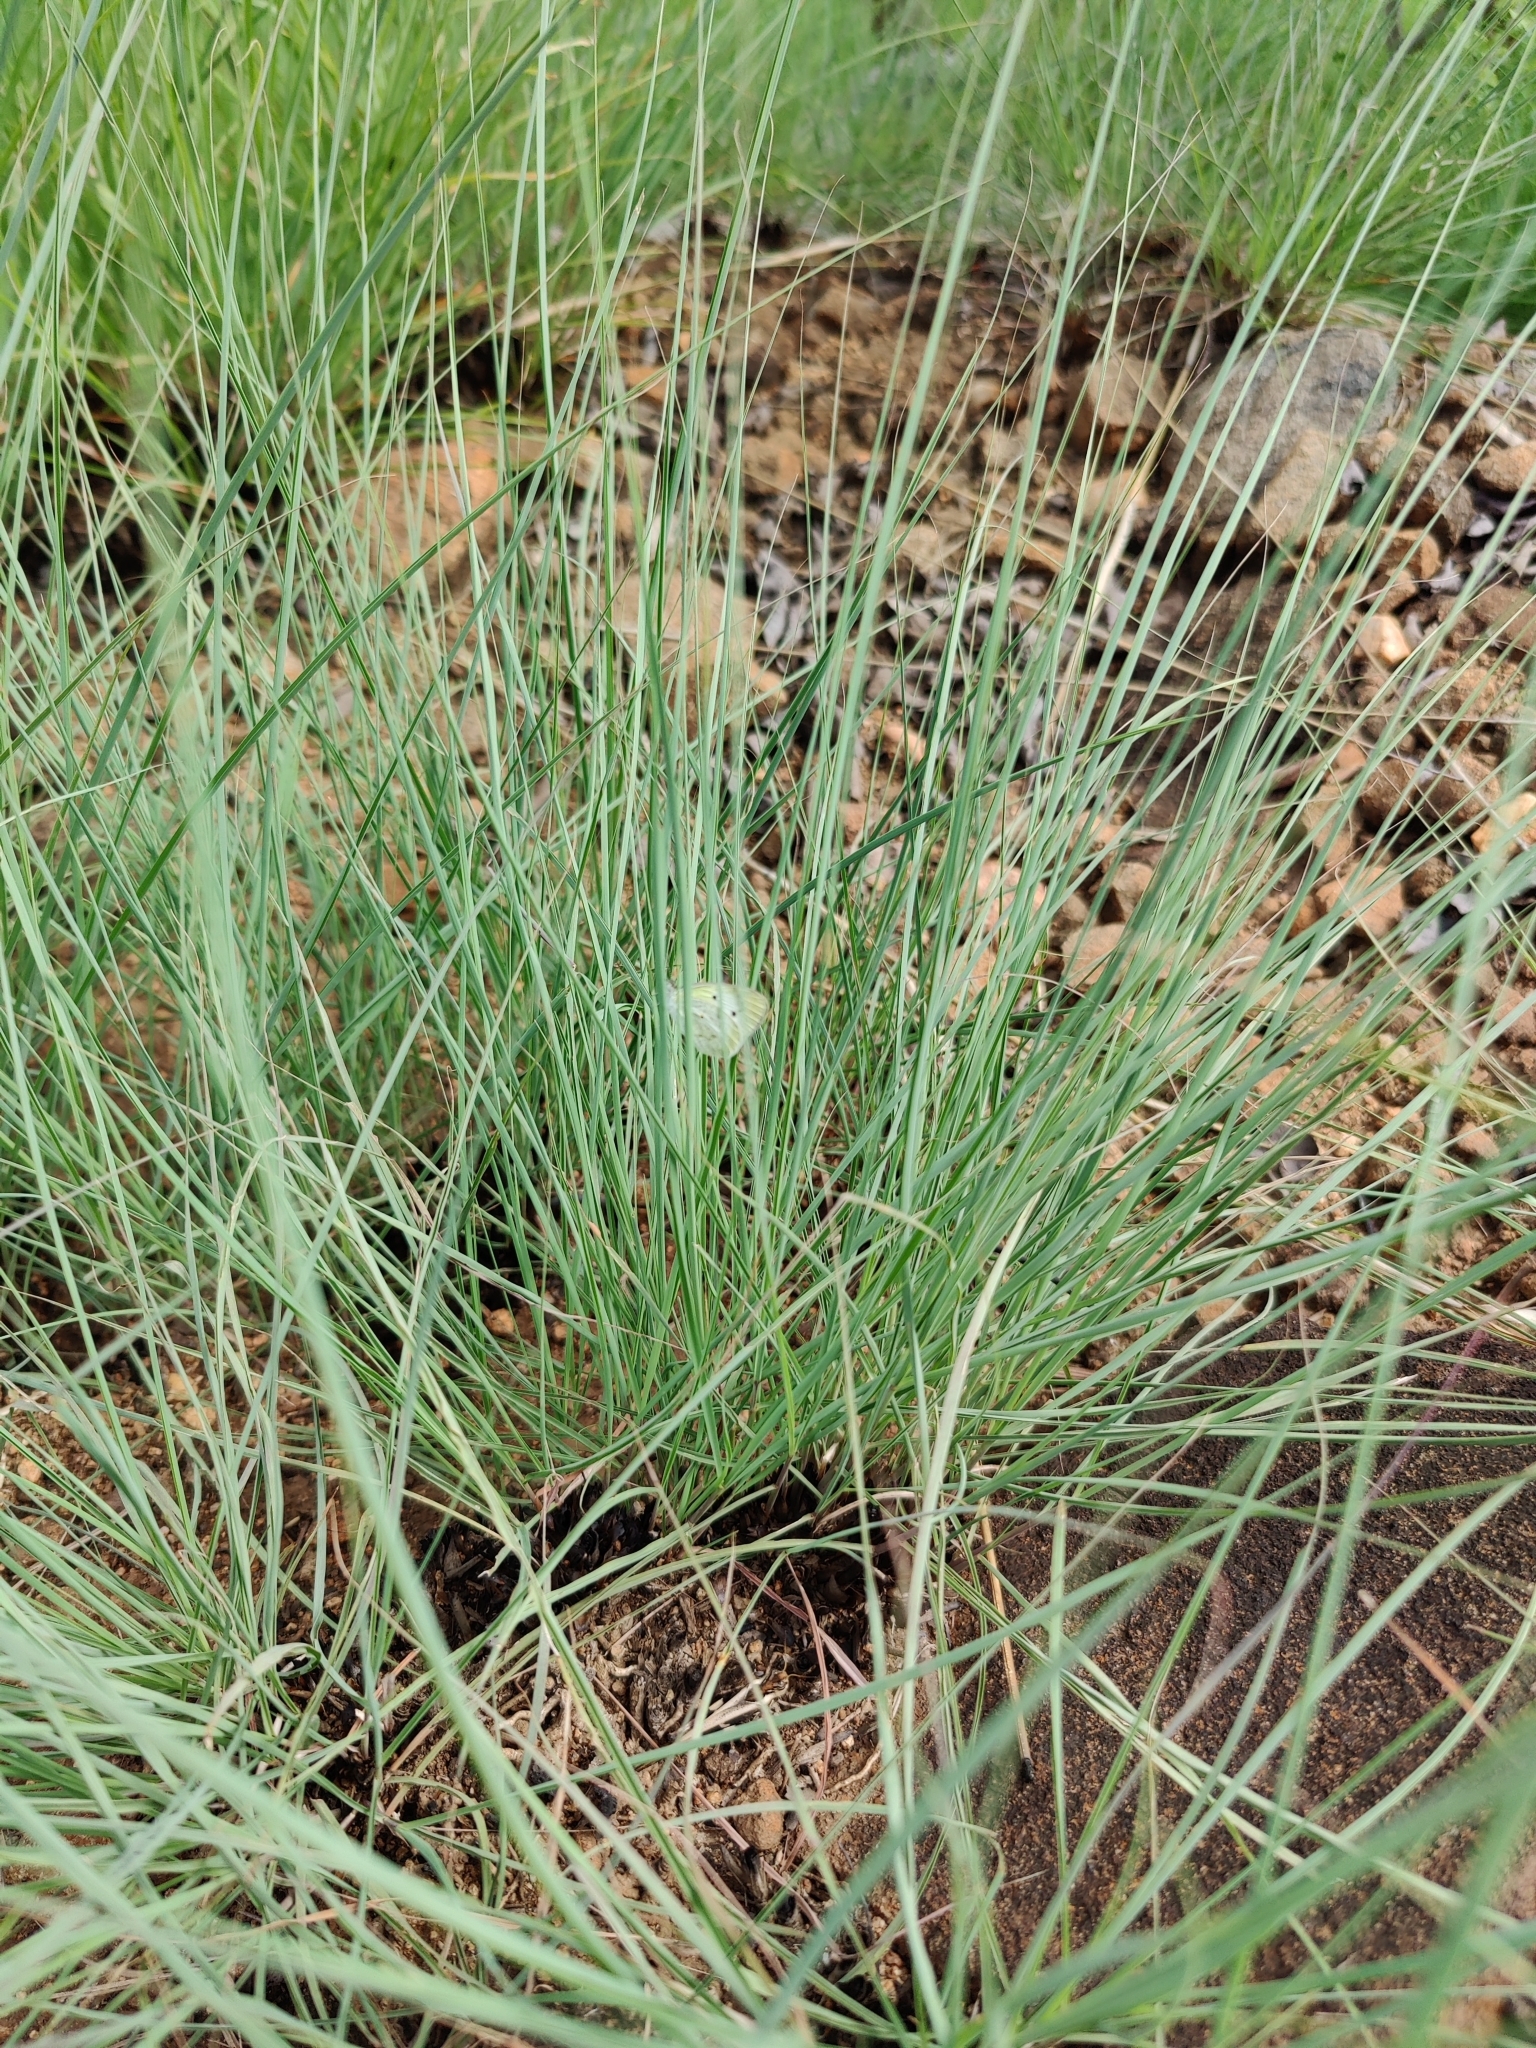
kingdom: Animalia
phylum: Arthropoda
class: Insecta
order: Lepidoptera
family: Pieridae
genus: Colotis
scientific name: Colotis etrida
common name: Little orange tip
